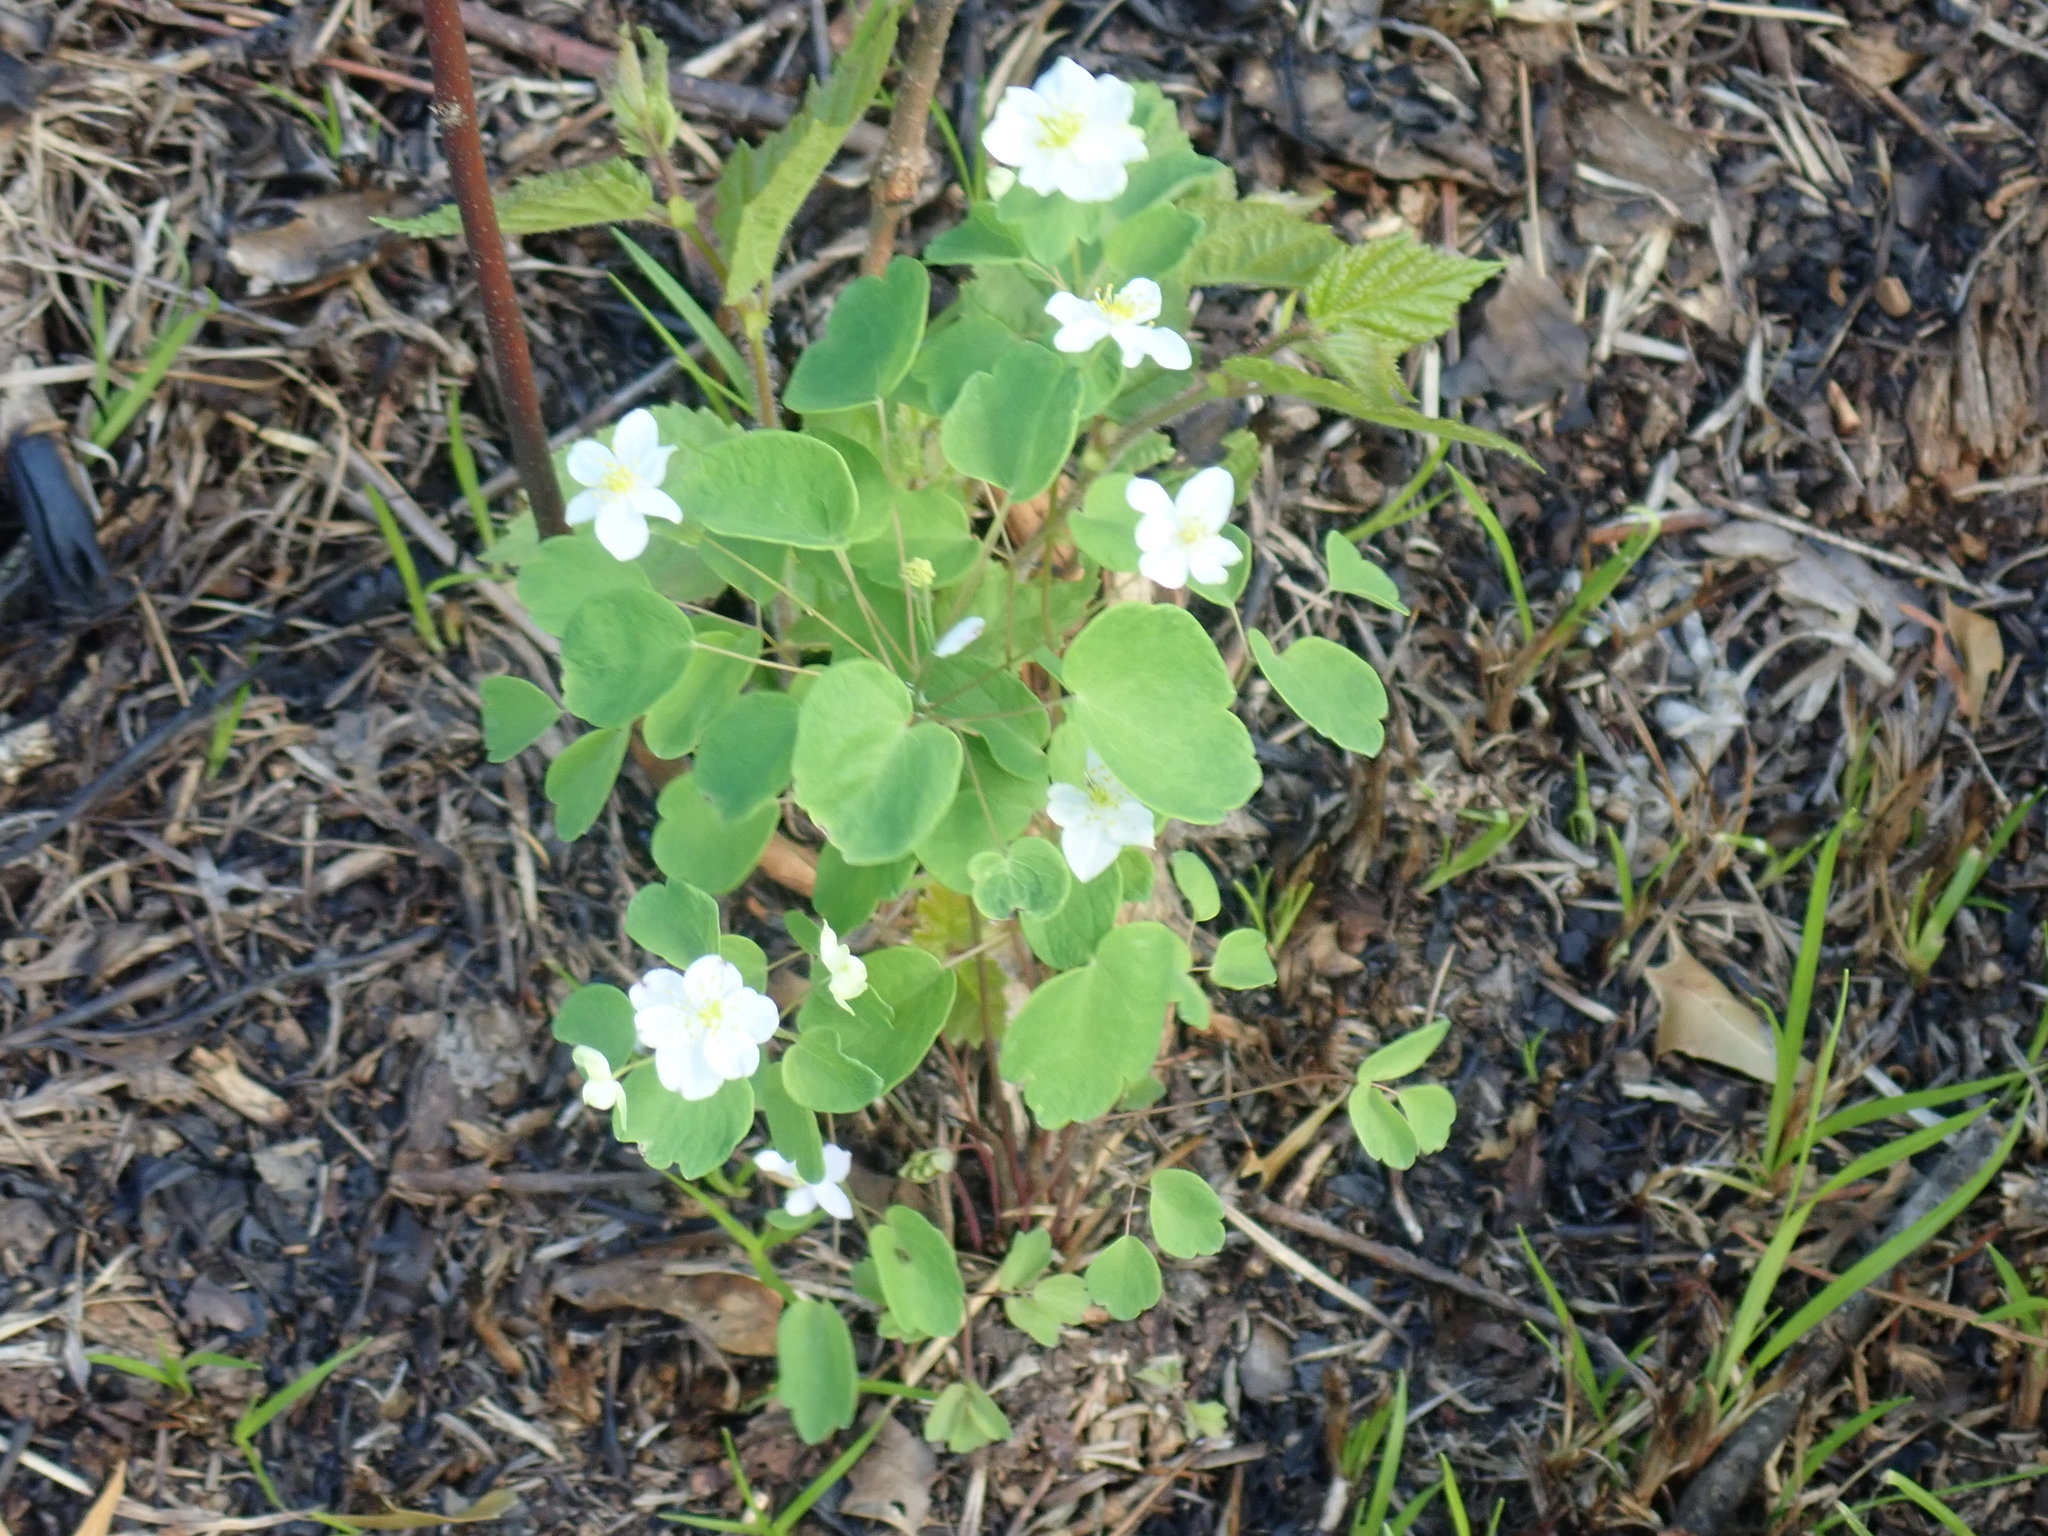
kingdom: Plantae
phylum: Tracheophyta
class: Magnoliopsida
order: Ranunculales
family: Ranunculaceae
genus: Thalictrum
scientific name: Thalictrum thalictroides
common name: Rue-anemone
